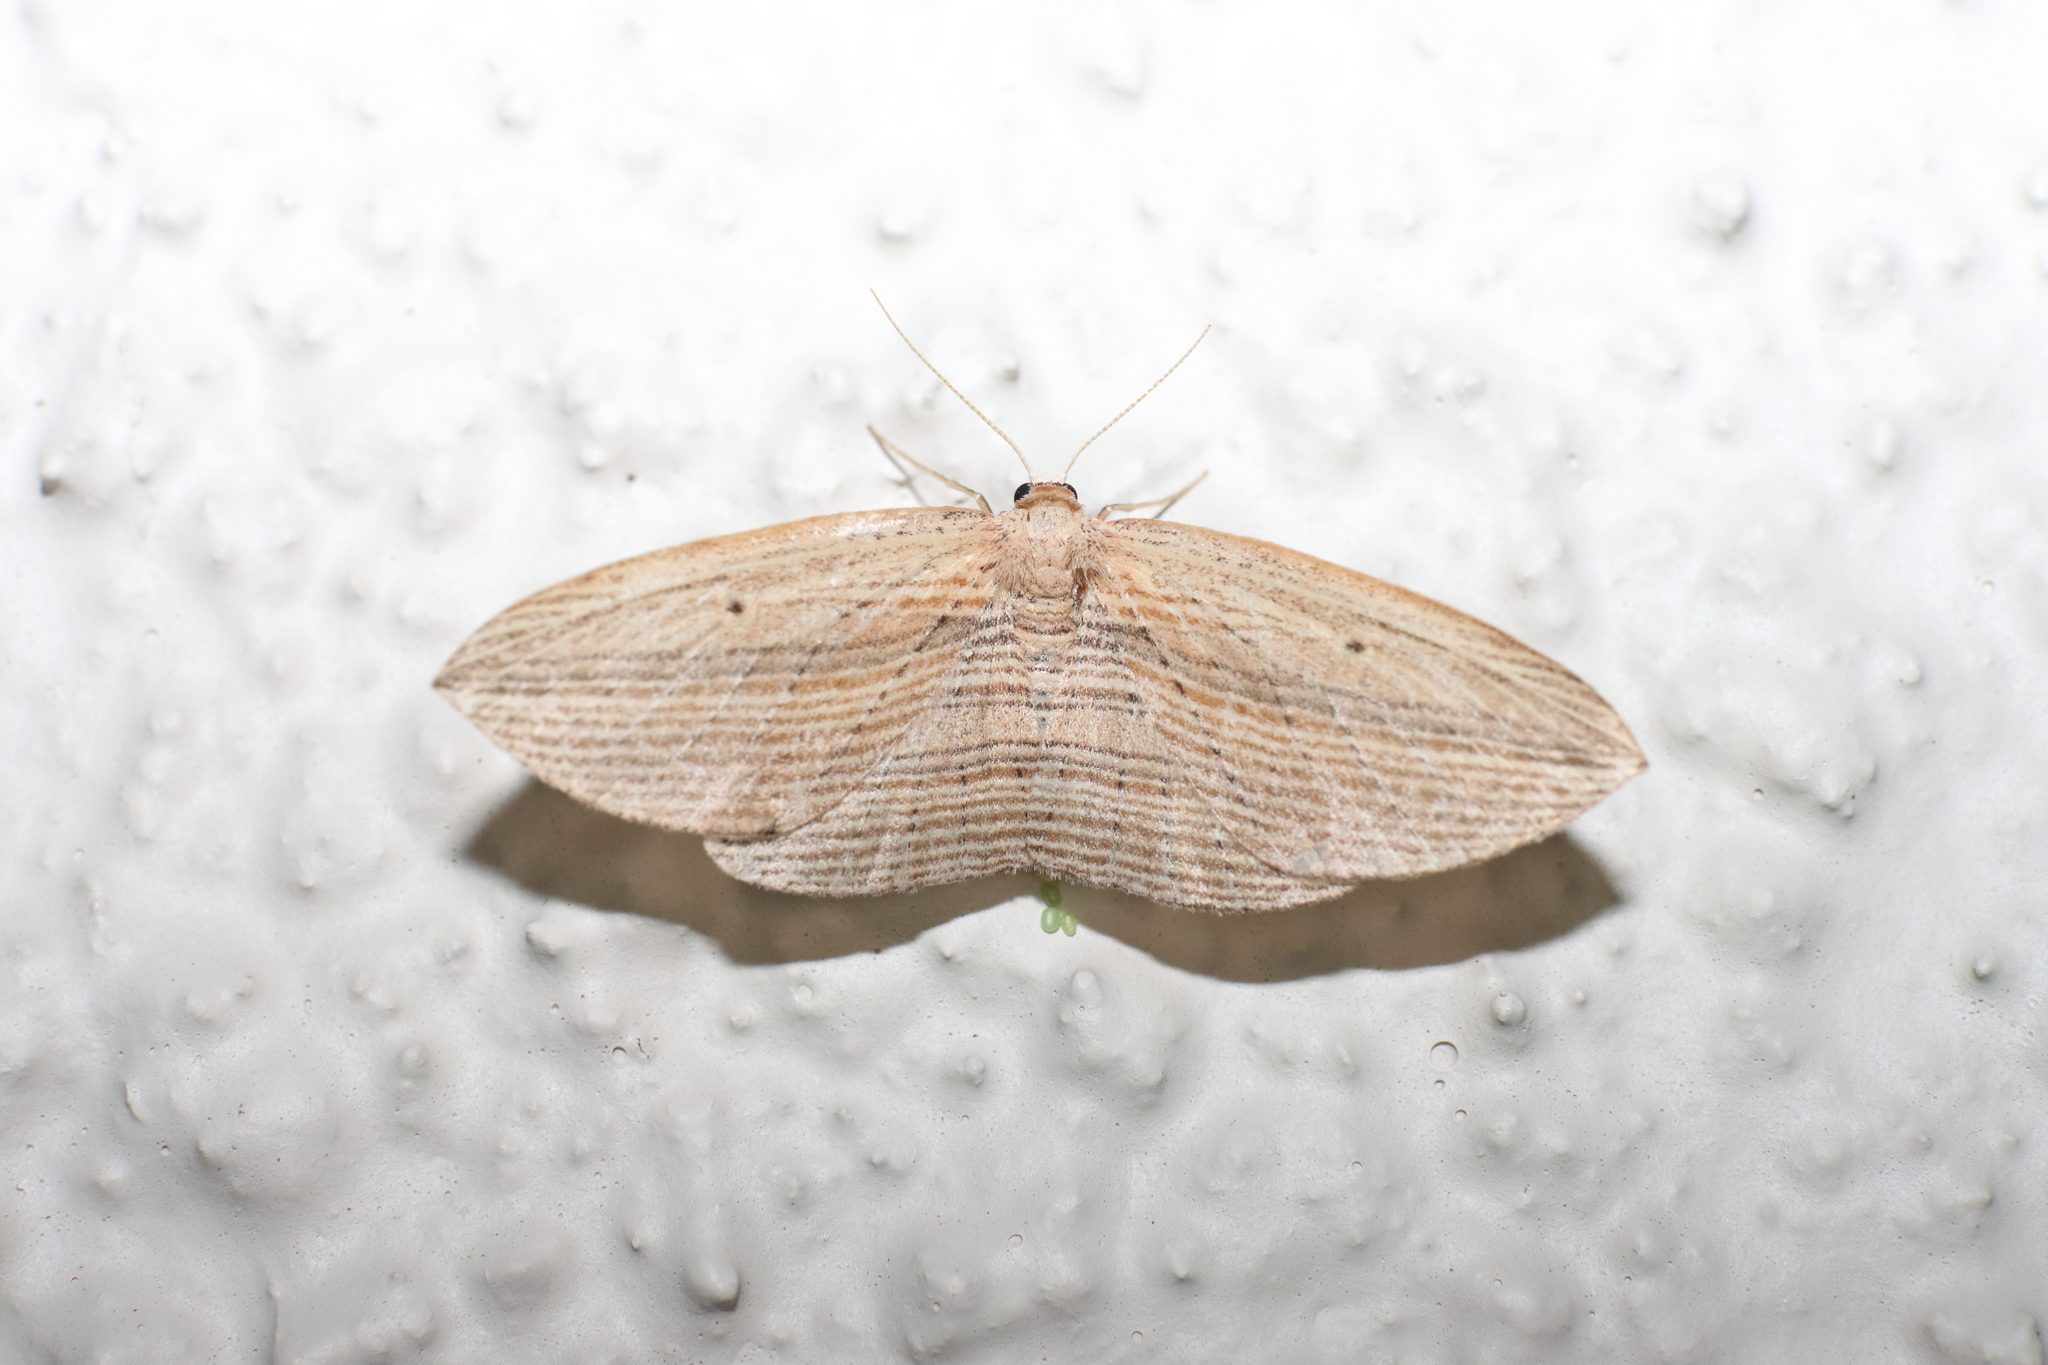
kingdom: Animalia
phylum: Arthropoda
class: Insecta
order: Lepidoptera
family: Geometridae
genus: Epiphryne
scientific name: Epiphryne verriculata
